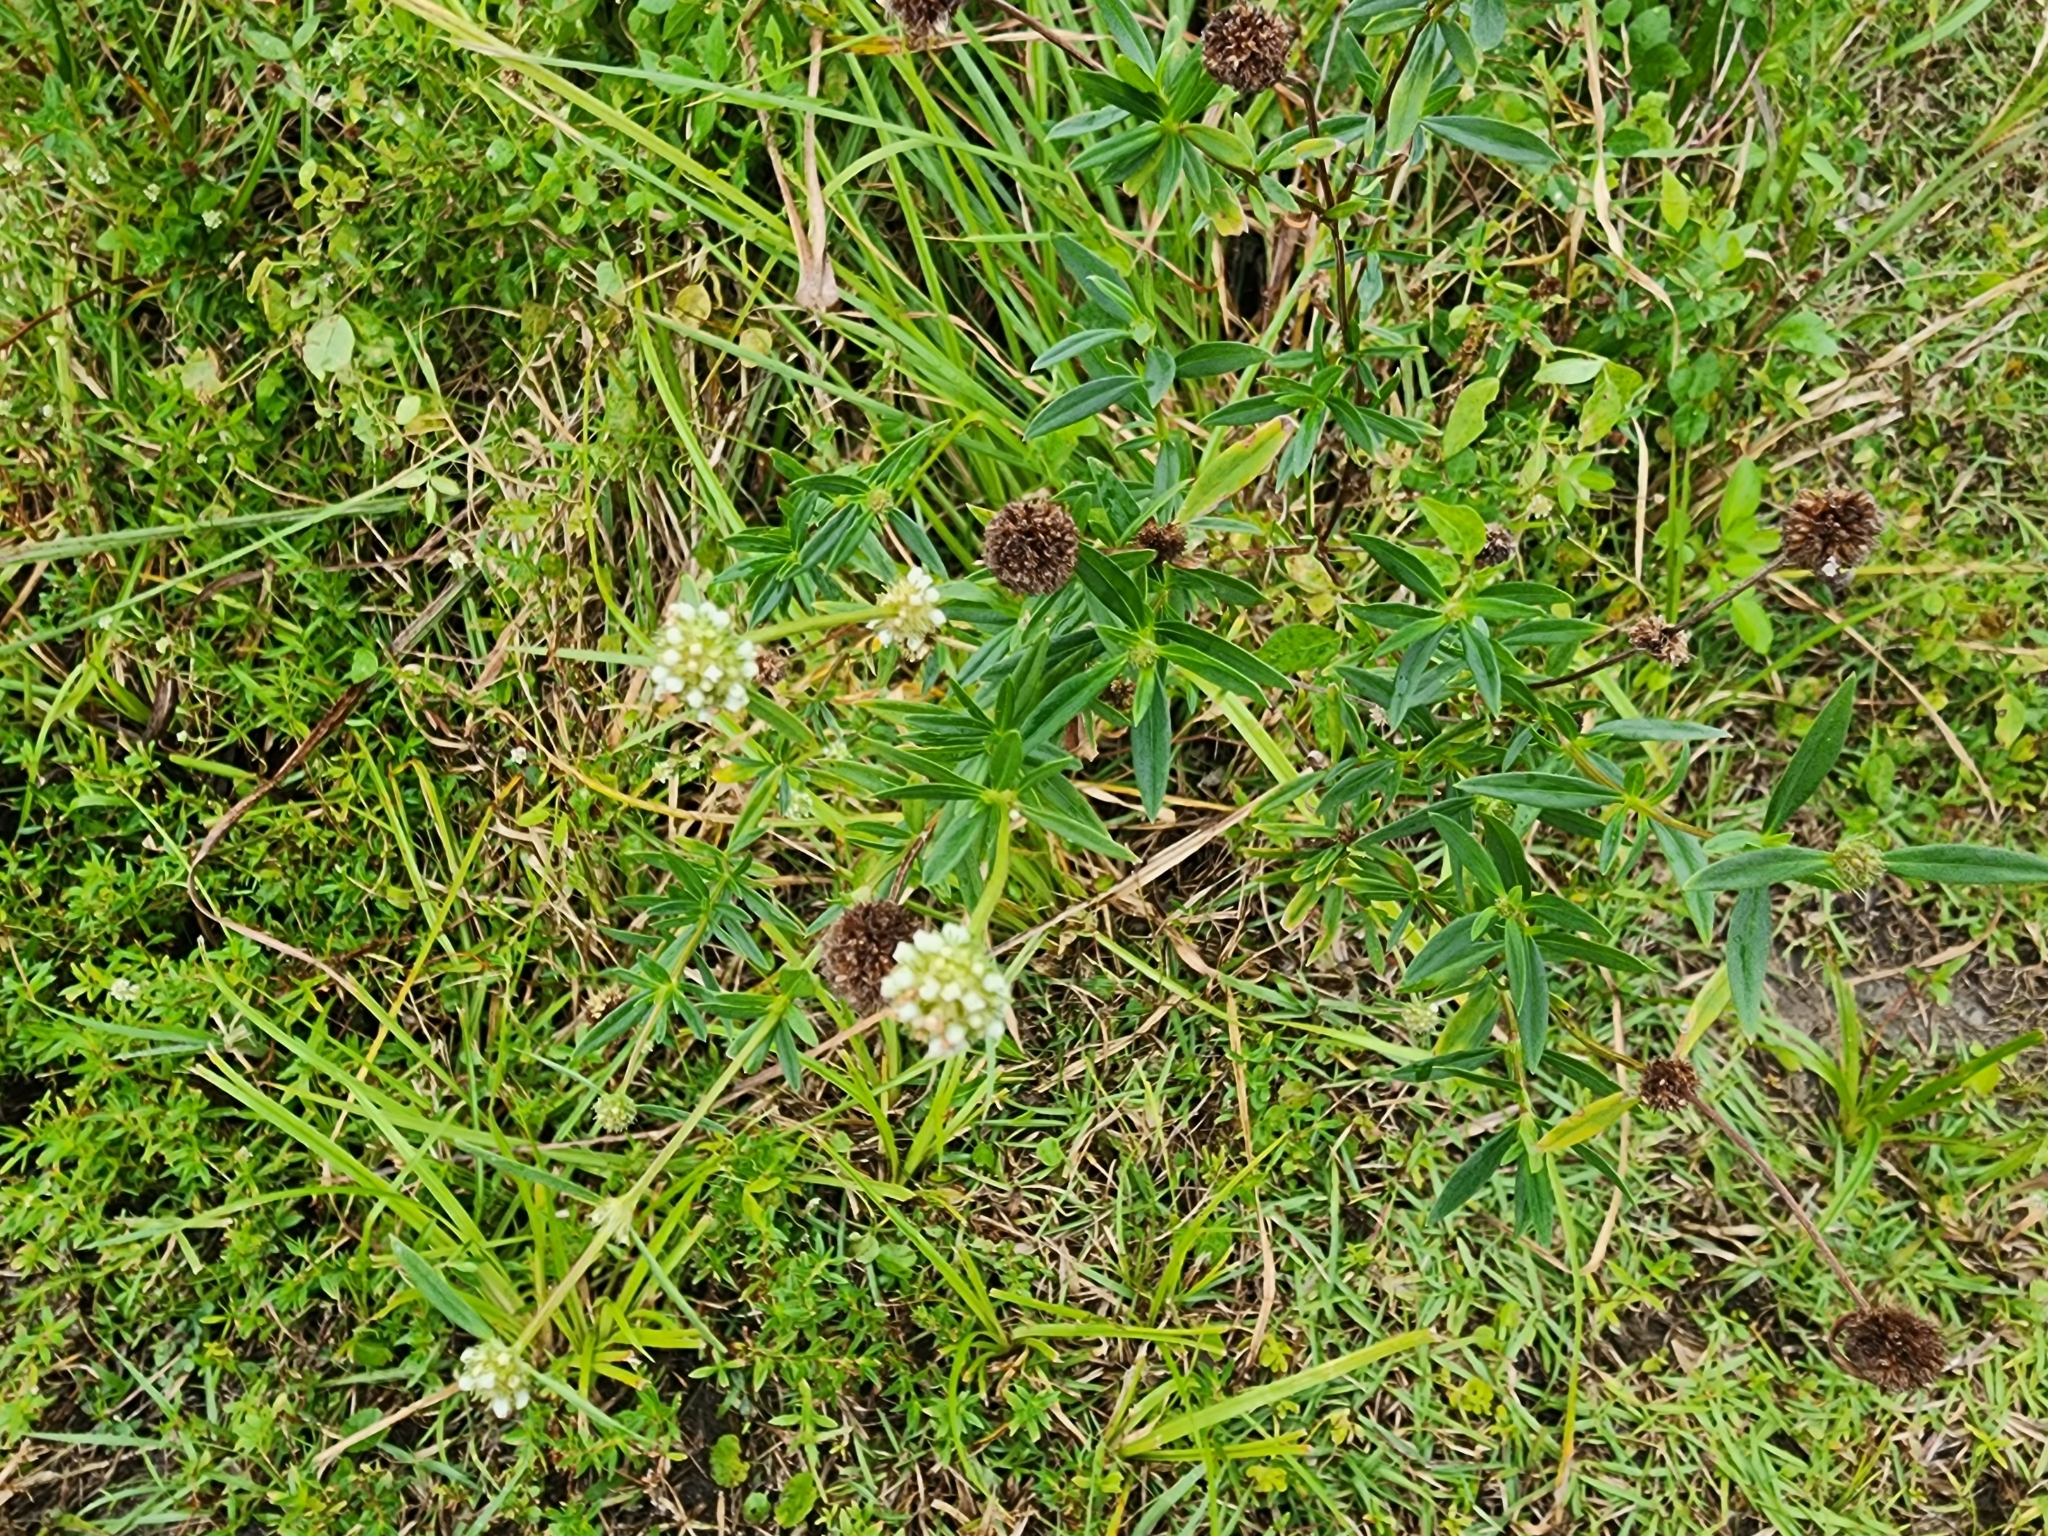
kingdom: Plantae
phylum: Tracheophyta
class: Magnoliopsida
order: Gentianales
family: Rubiaceae
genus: Spermacoce
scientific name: Spermacoce verticillata
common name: Shrubby false buttonweed
